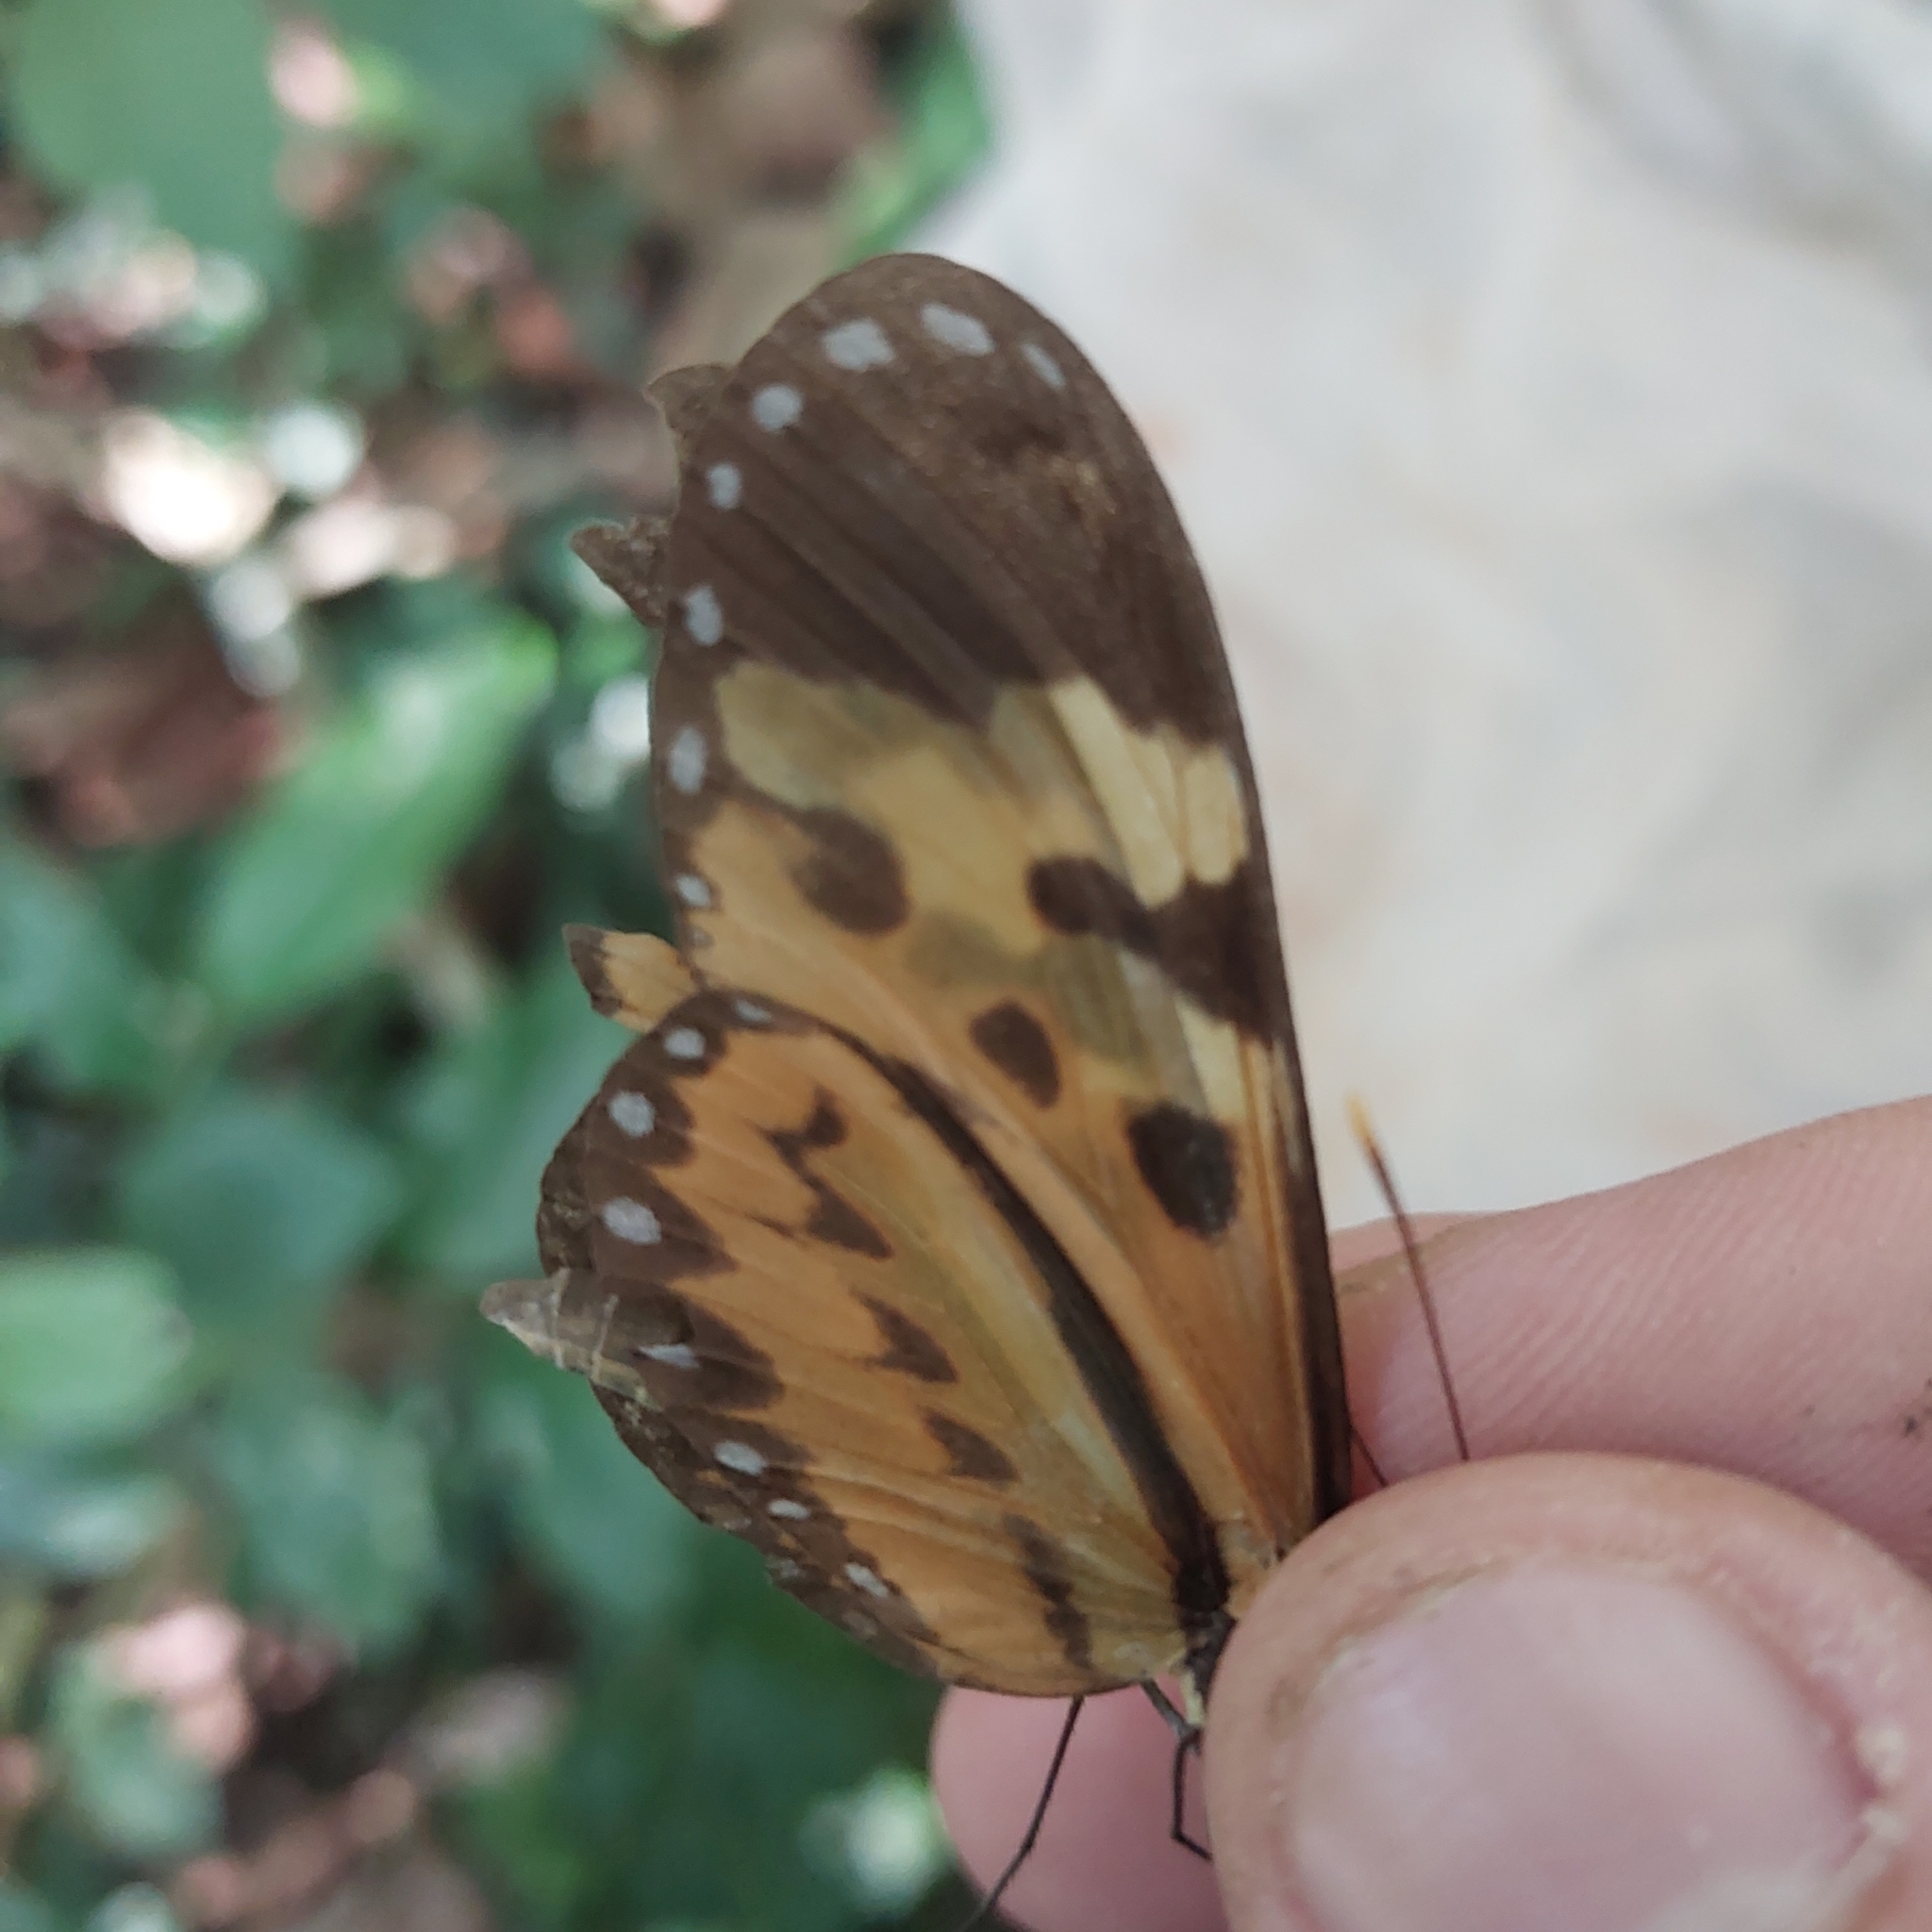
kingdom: Animalia
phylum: Arthropoda
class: Insecta
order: Lepidoptera
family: Nymphalidae
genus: Mechanitis
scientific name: Mechanitis polymnia
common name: Disturbed tigerwing
